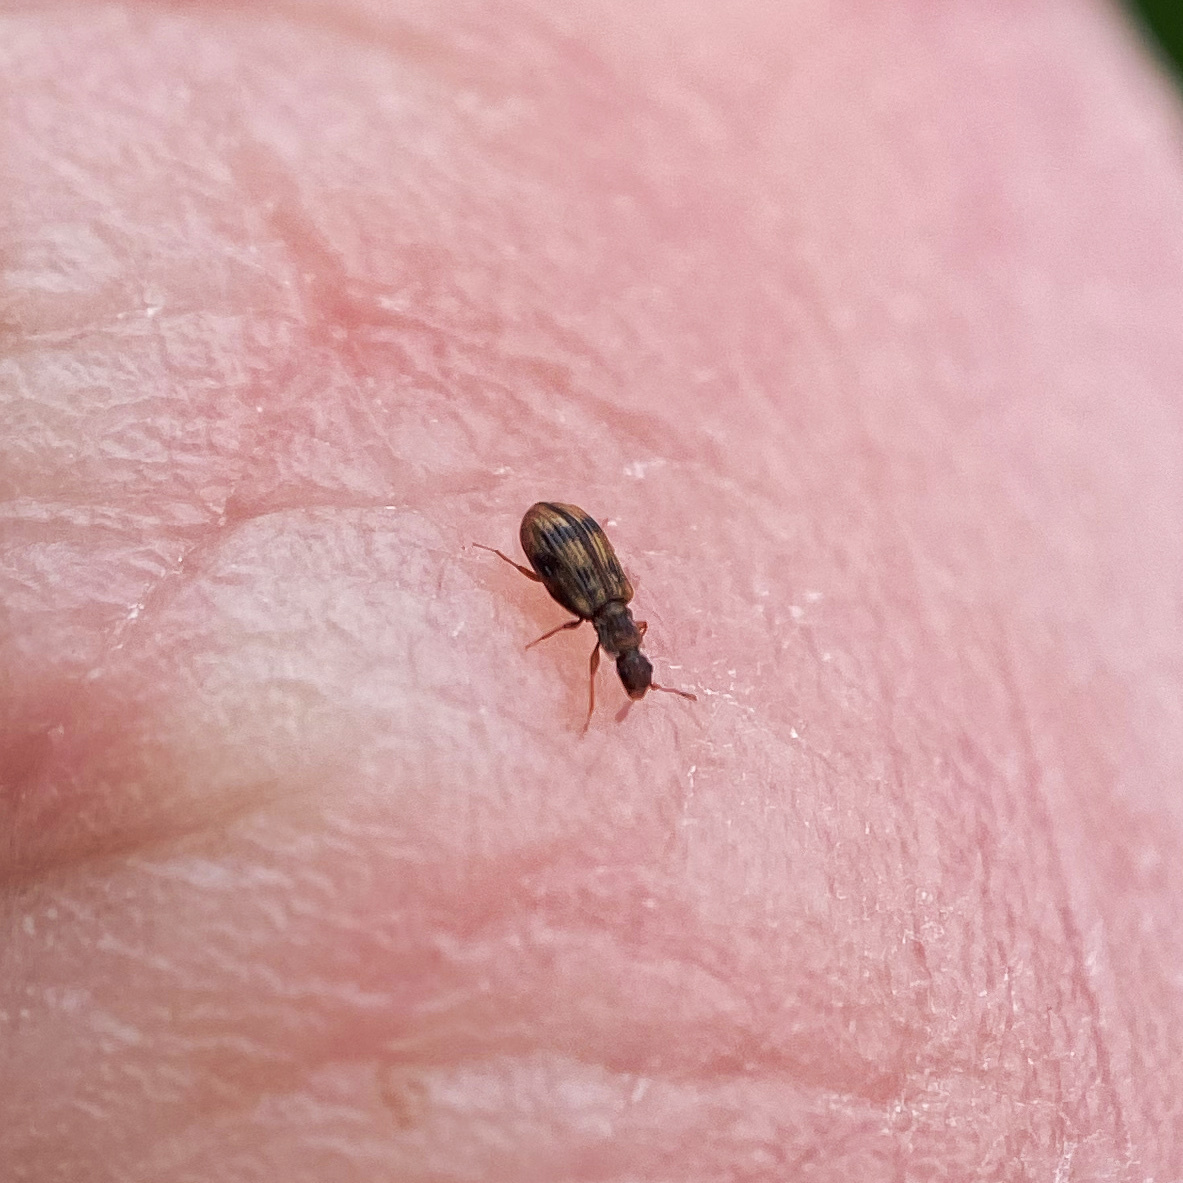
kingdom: Animalia
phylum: Arthropoda
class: Insecta
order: Coleoptera
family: Latridiidae
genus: Cartodere
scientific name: Cartodere bifasciata
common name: Plaster beetle
